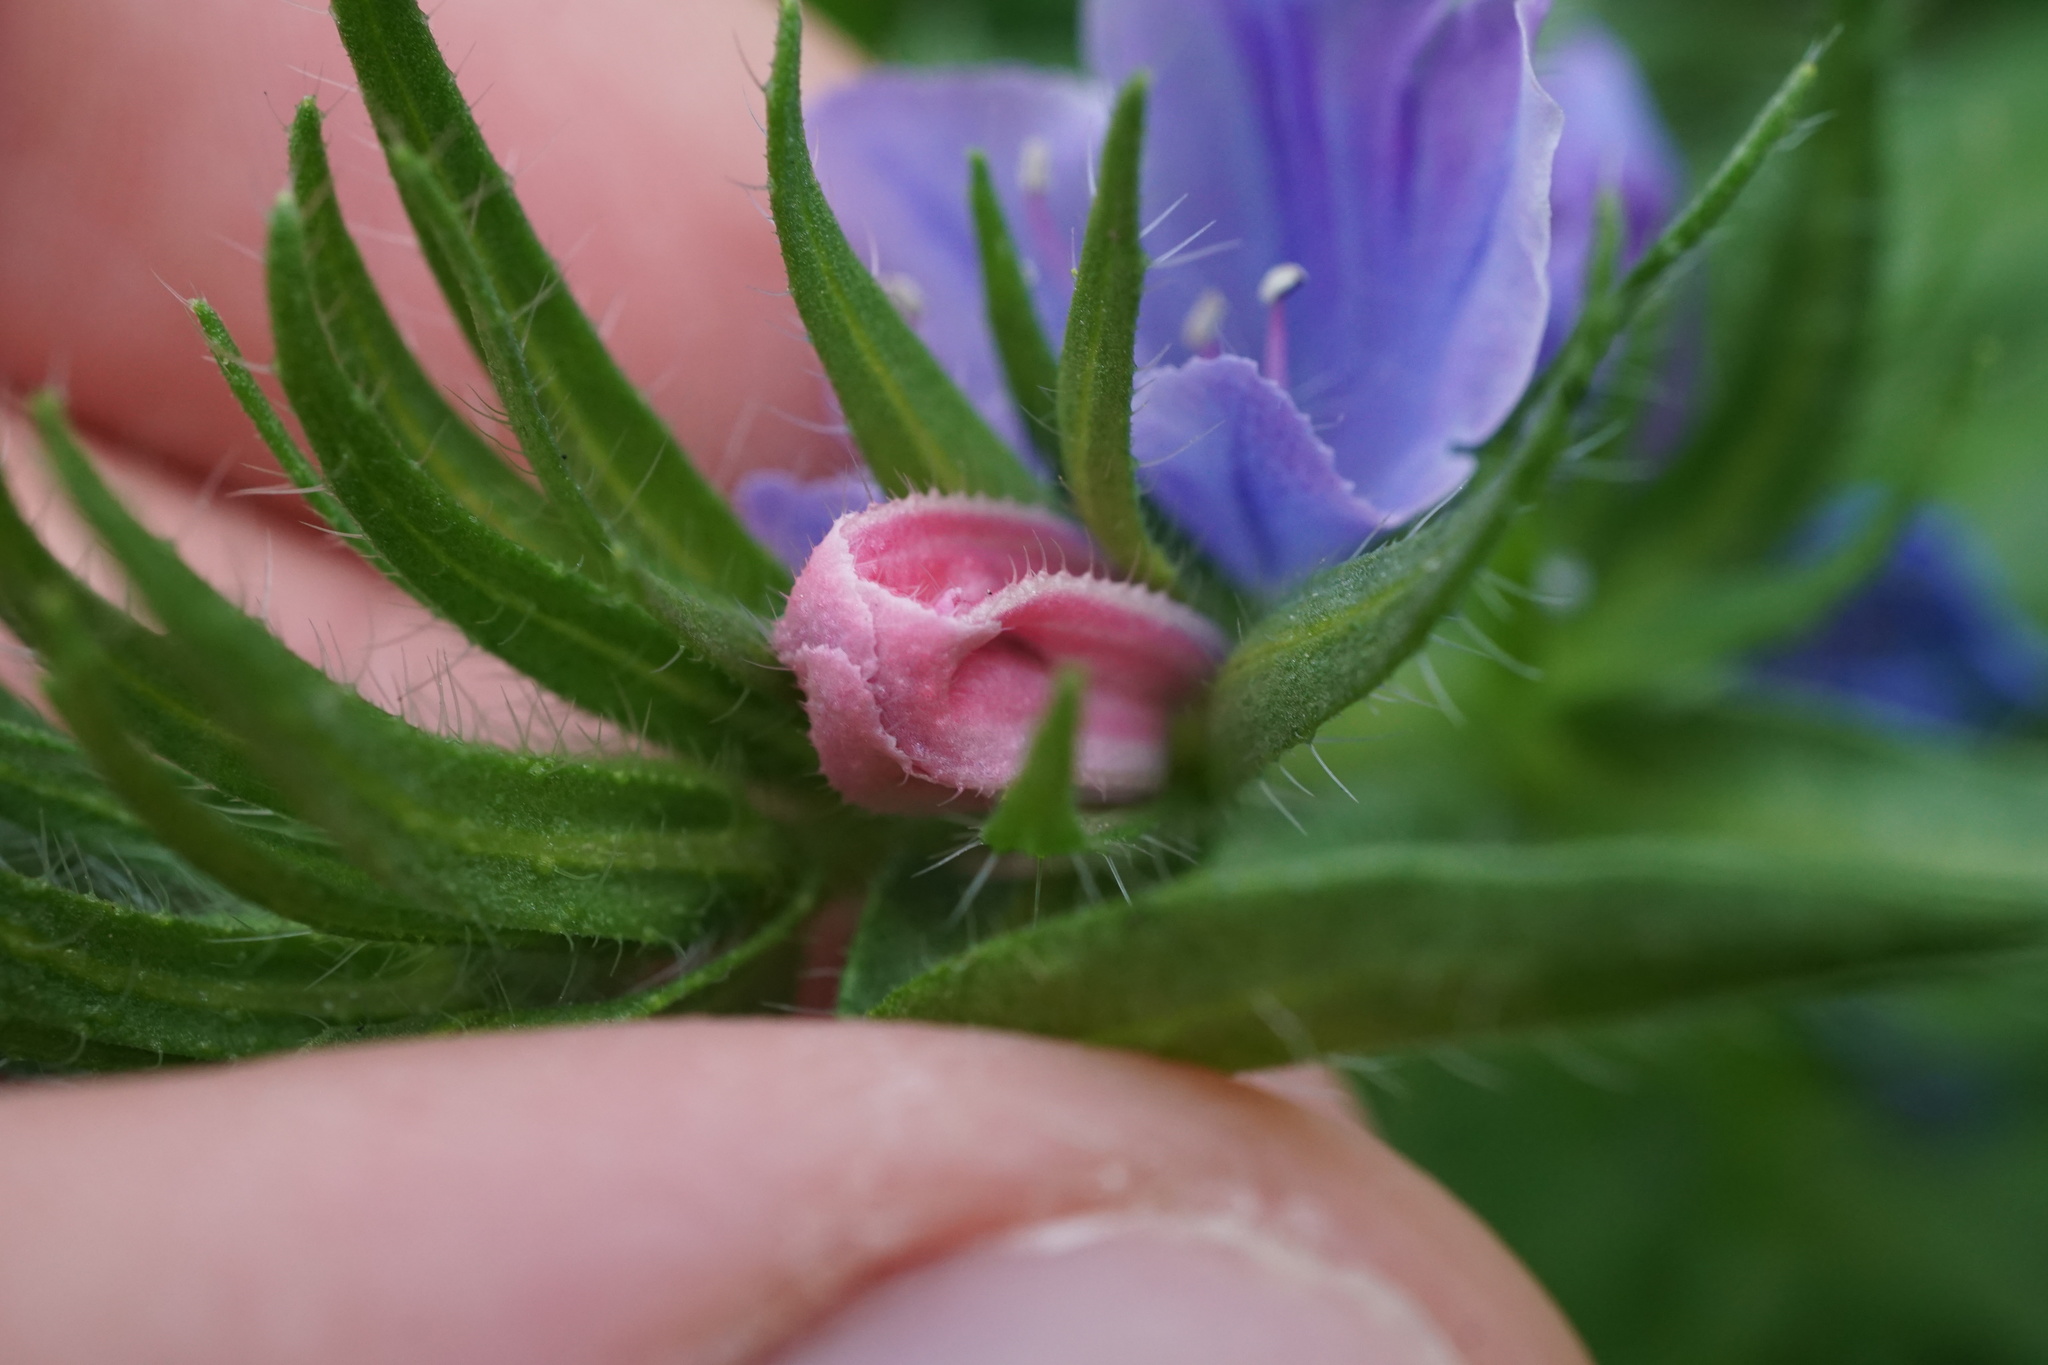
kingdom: Plantae
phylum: Tracheophyta
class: Magnoliopsida
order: Boraginales
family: Boraginaceae
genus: Echium
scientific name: Echium vulgare
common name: Common viper's bugloss
